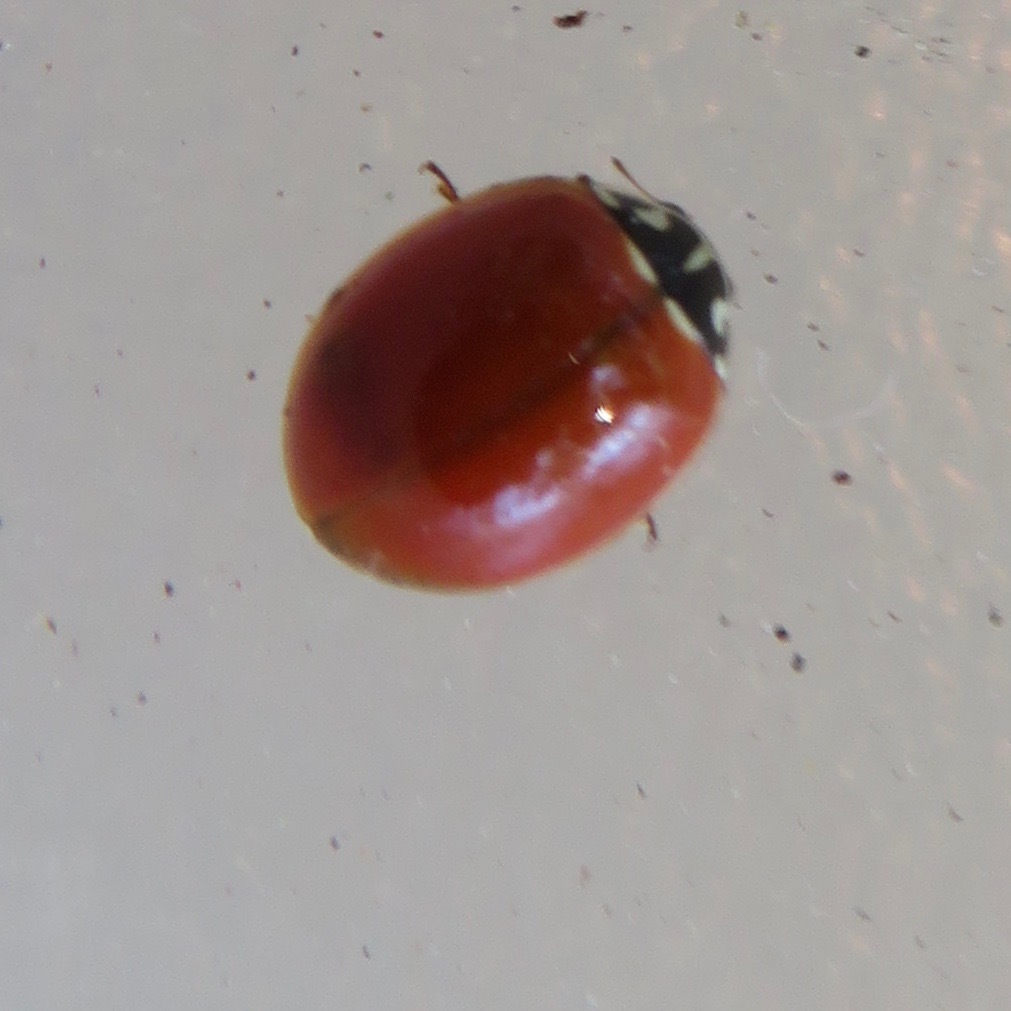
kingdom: Animalia
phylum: Arthropoda
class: Insecta
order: Coleoptera
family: Coccinellidae
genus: Cycloneda
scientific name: Cycloneda polita
